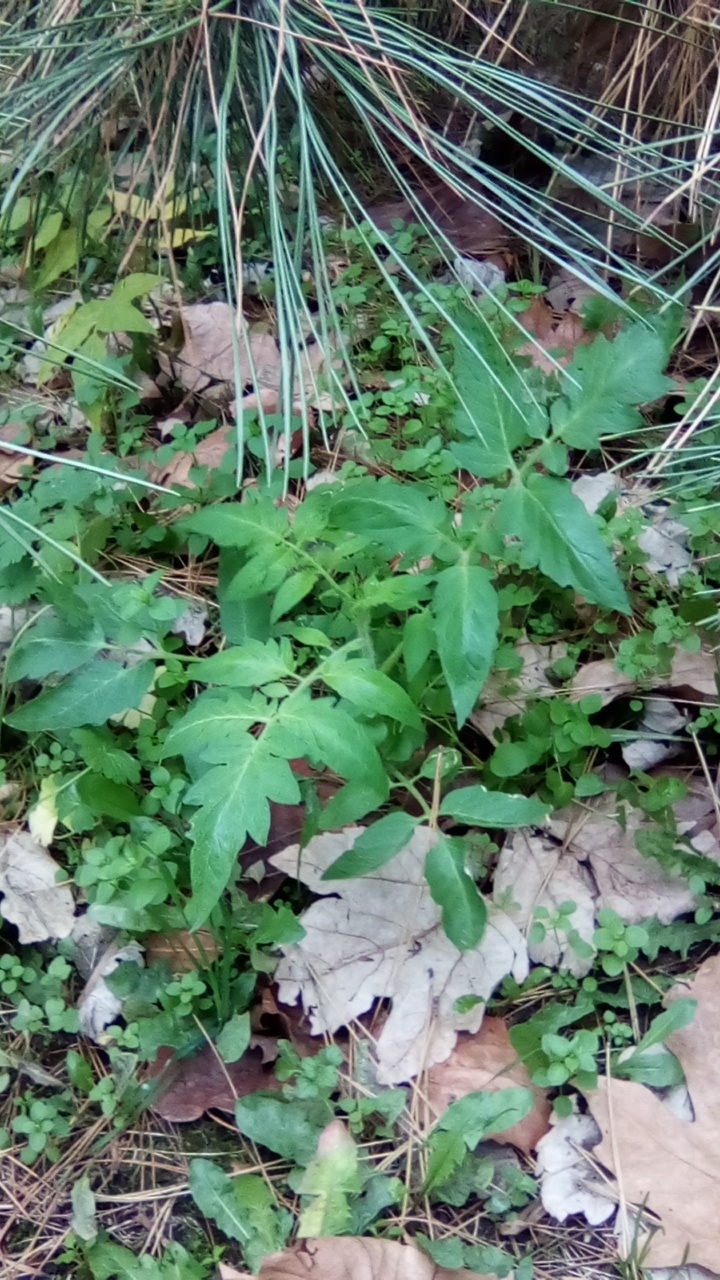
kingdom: Plantae
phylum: Tracheophyta
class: Magnoliopsida
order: Solanales
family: Solanaceae
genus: Solanum
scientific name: Solanum lycopersicum
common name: Garden tomato
